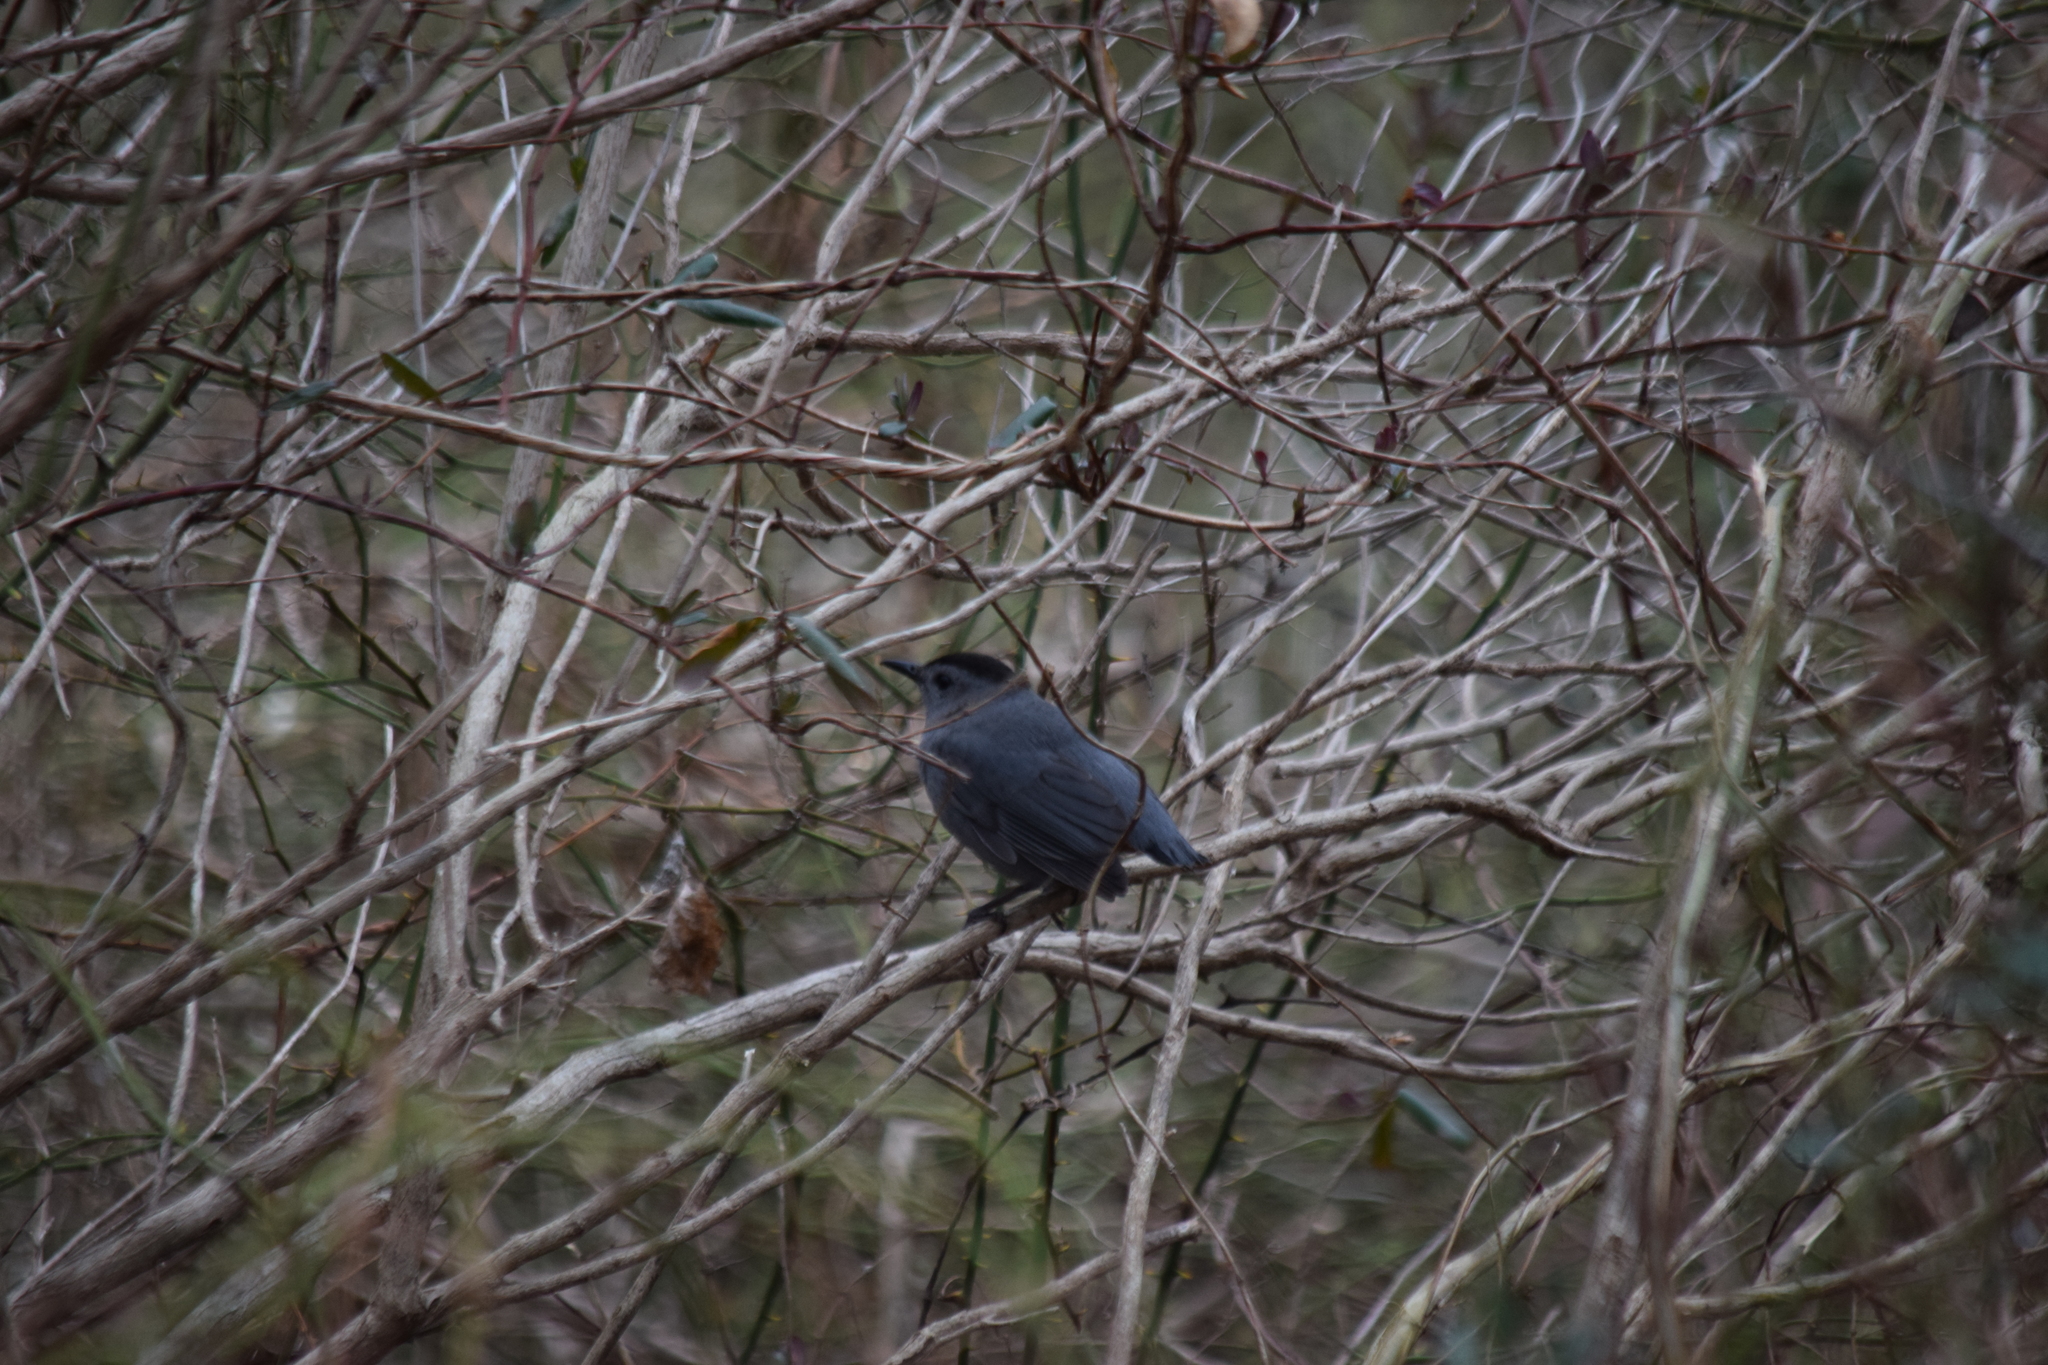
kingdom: Animalia
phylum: Chordata
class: Aves
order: Passeriformes
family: Mimidae
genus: Dumetella
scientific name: Dumetella carolinensis
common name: Gray catbird
